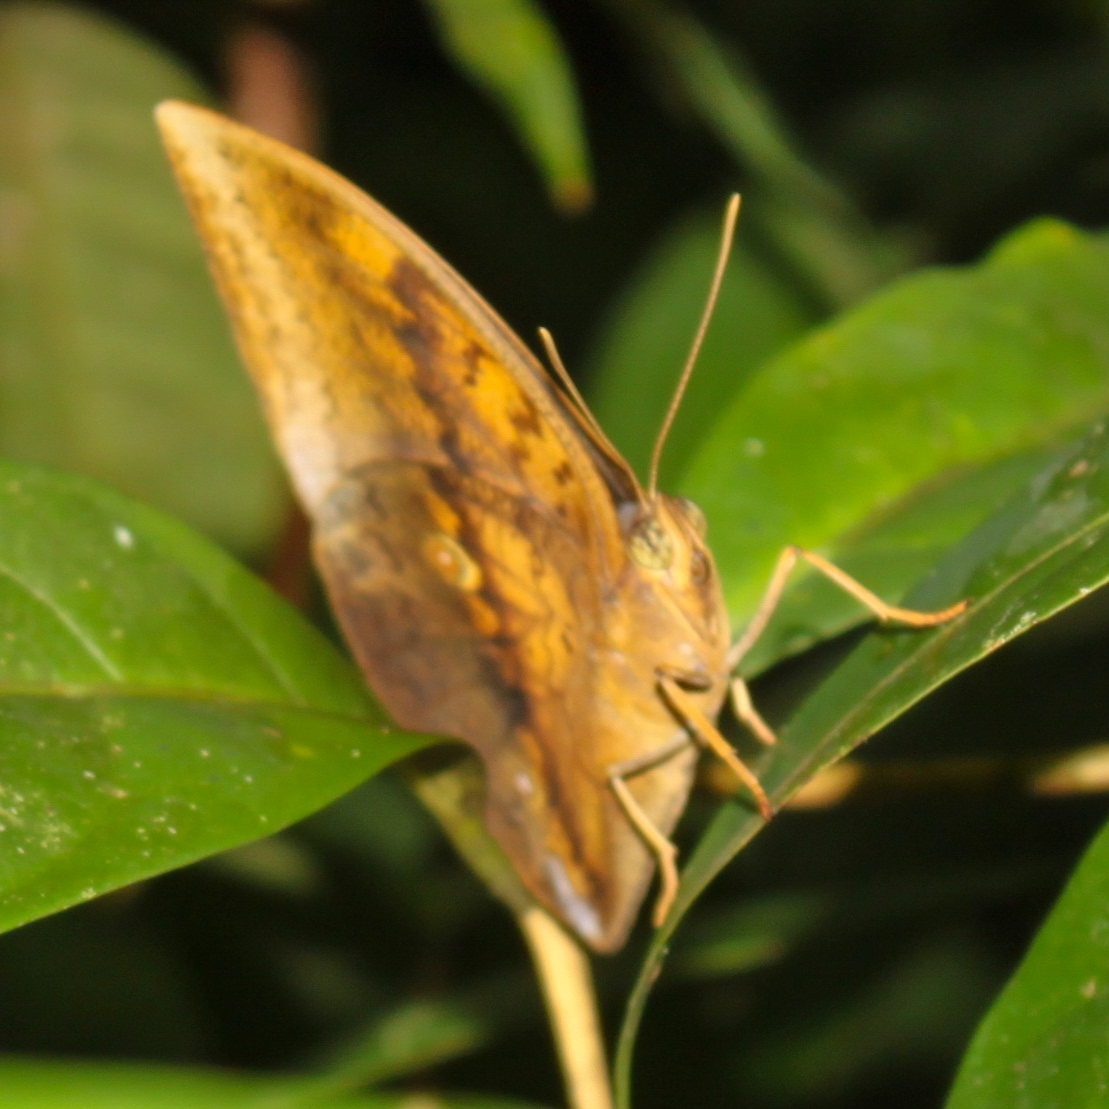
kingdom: Animalia
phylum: Arthropoda
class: Insecta
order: Lepidoptera
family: Nymphalidae
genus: Discophora
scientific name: Discophora timora
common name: Great duffer
